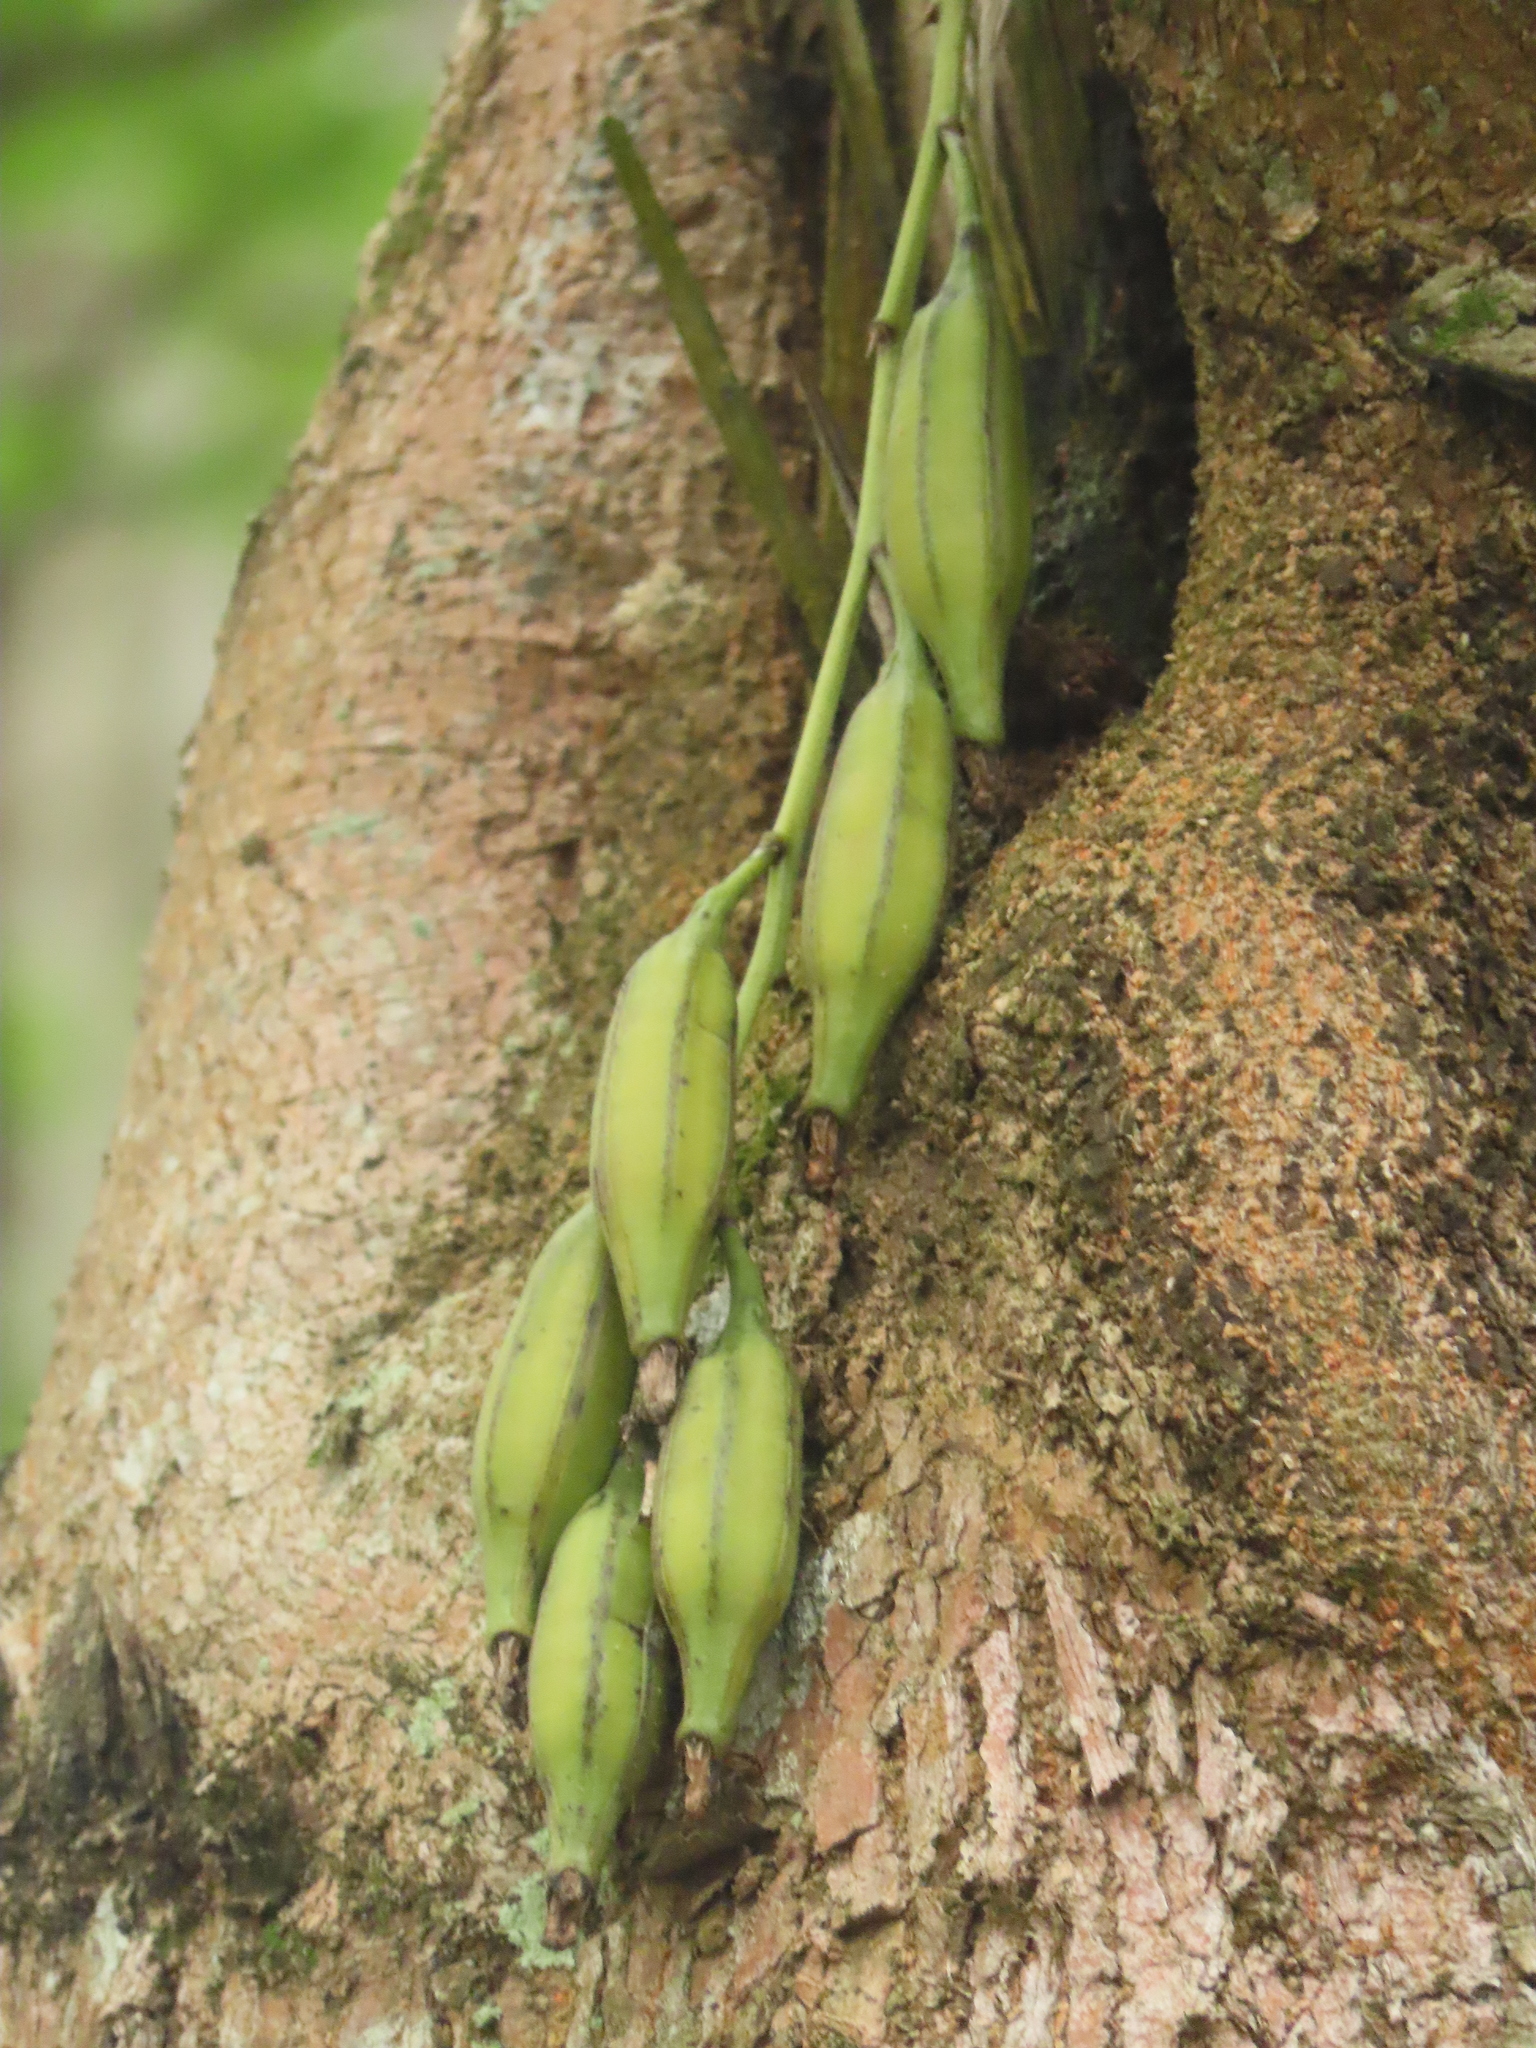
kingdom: Plantae
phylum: Tracheophyta
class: Liliopsida
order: Asparagales
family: Orchidaceae
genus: Cymbidium
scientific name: Cymbidium dayanum
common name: Orchid
